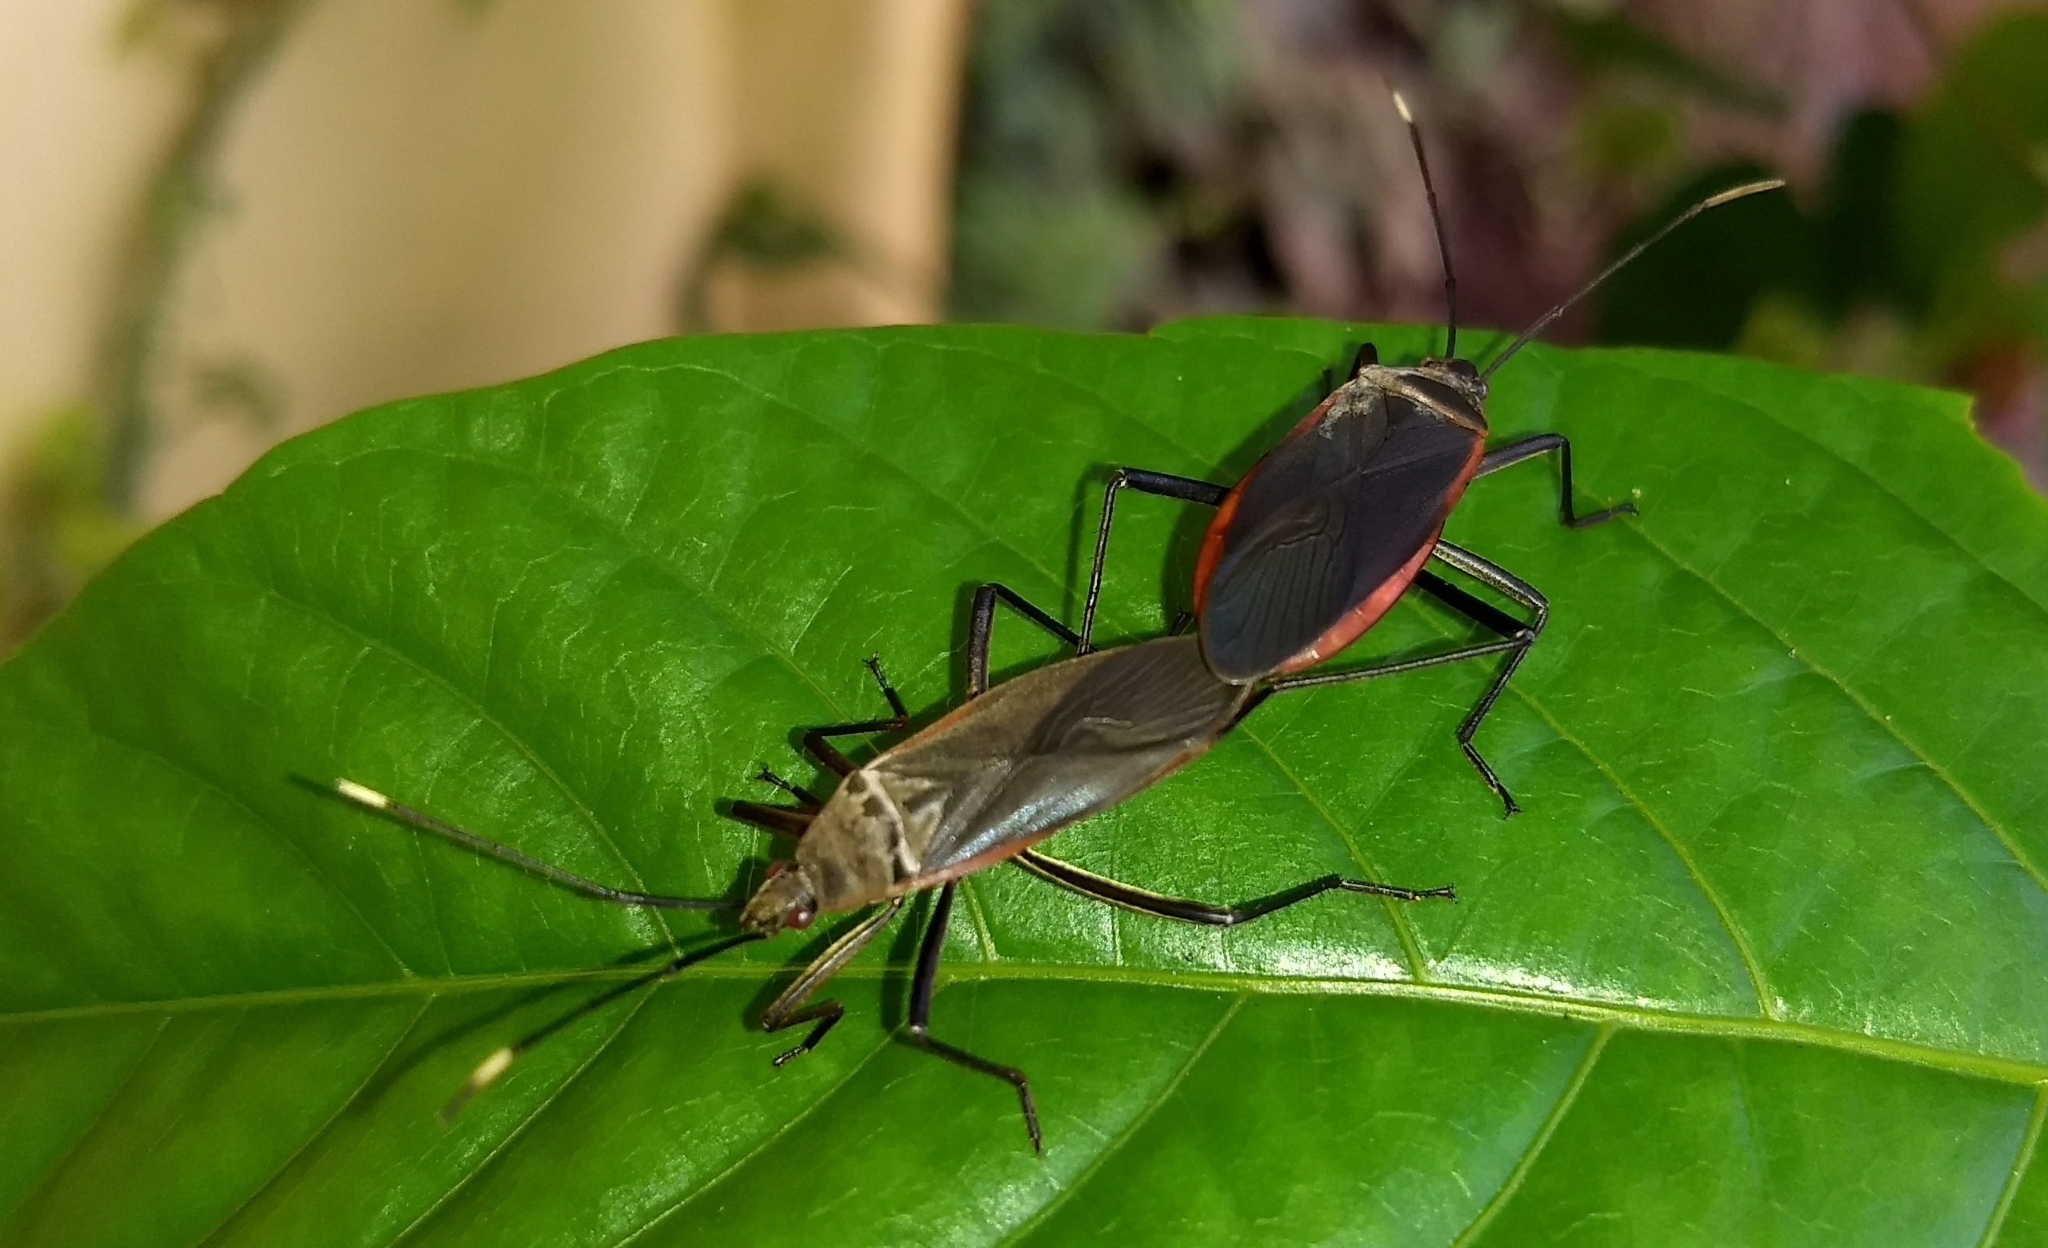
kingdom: Animalia
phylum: Arthropoda
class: Insecta
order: Hemiptera
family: Pyrrhocoridae
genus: Melamphaus
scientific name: Melamphaus
